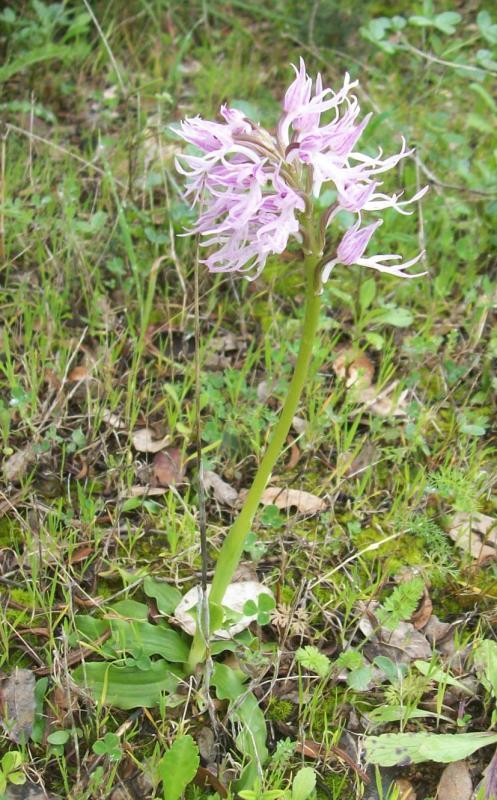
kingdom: Plantae
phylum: Tracheophyta
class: Liliopsida
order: Asparagales
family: Orchidaceae
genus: Orchis
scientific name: Orchis italica
